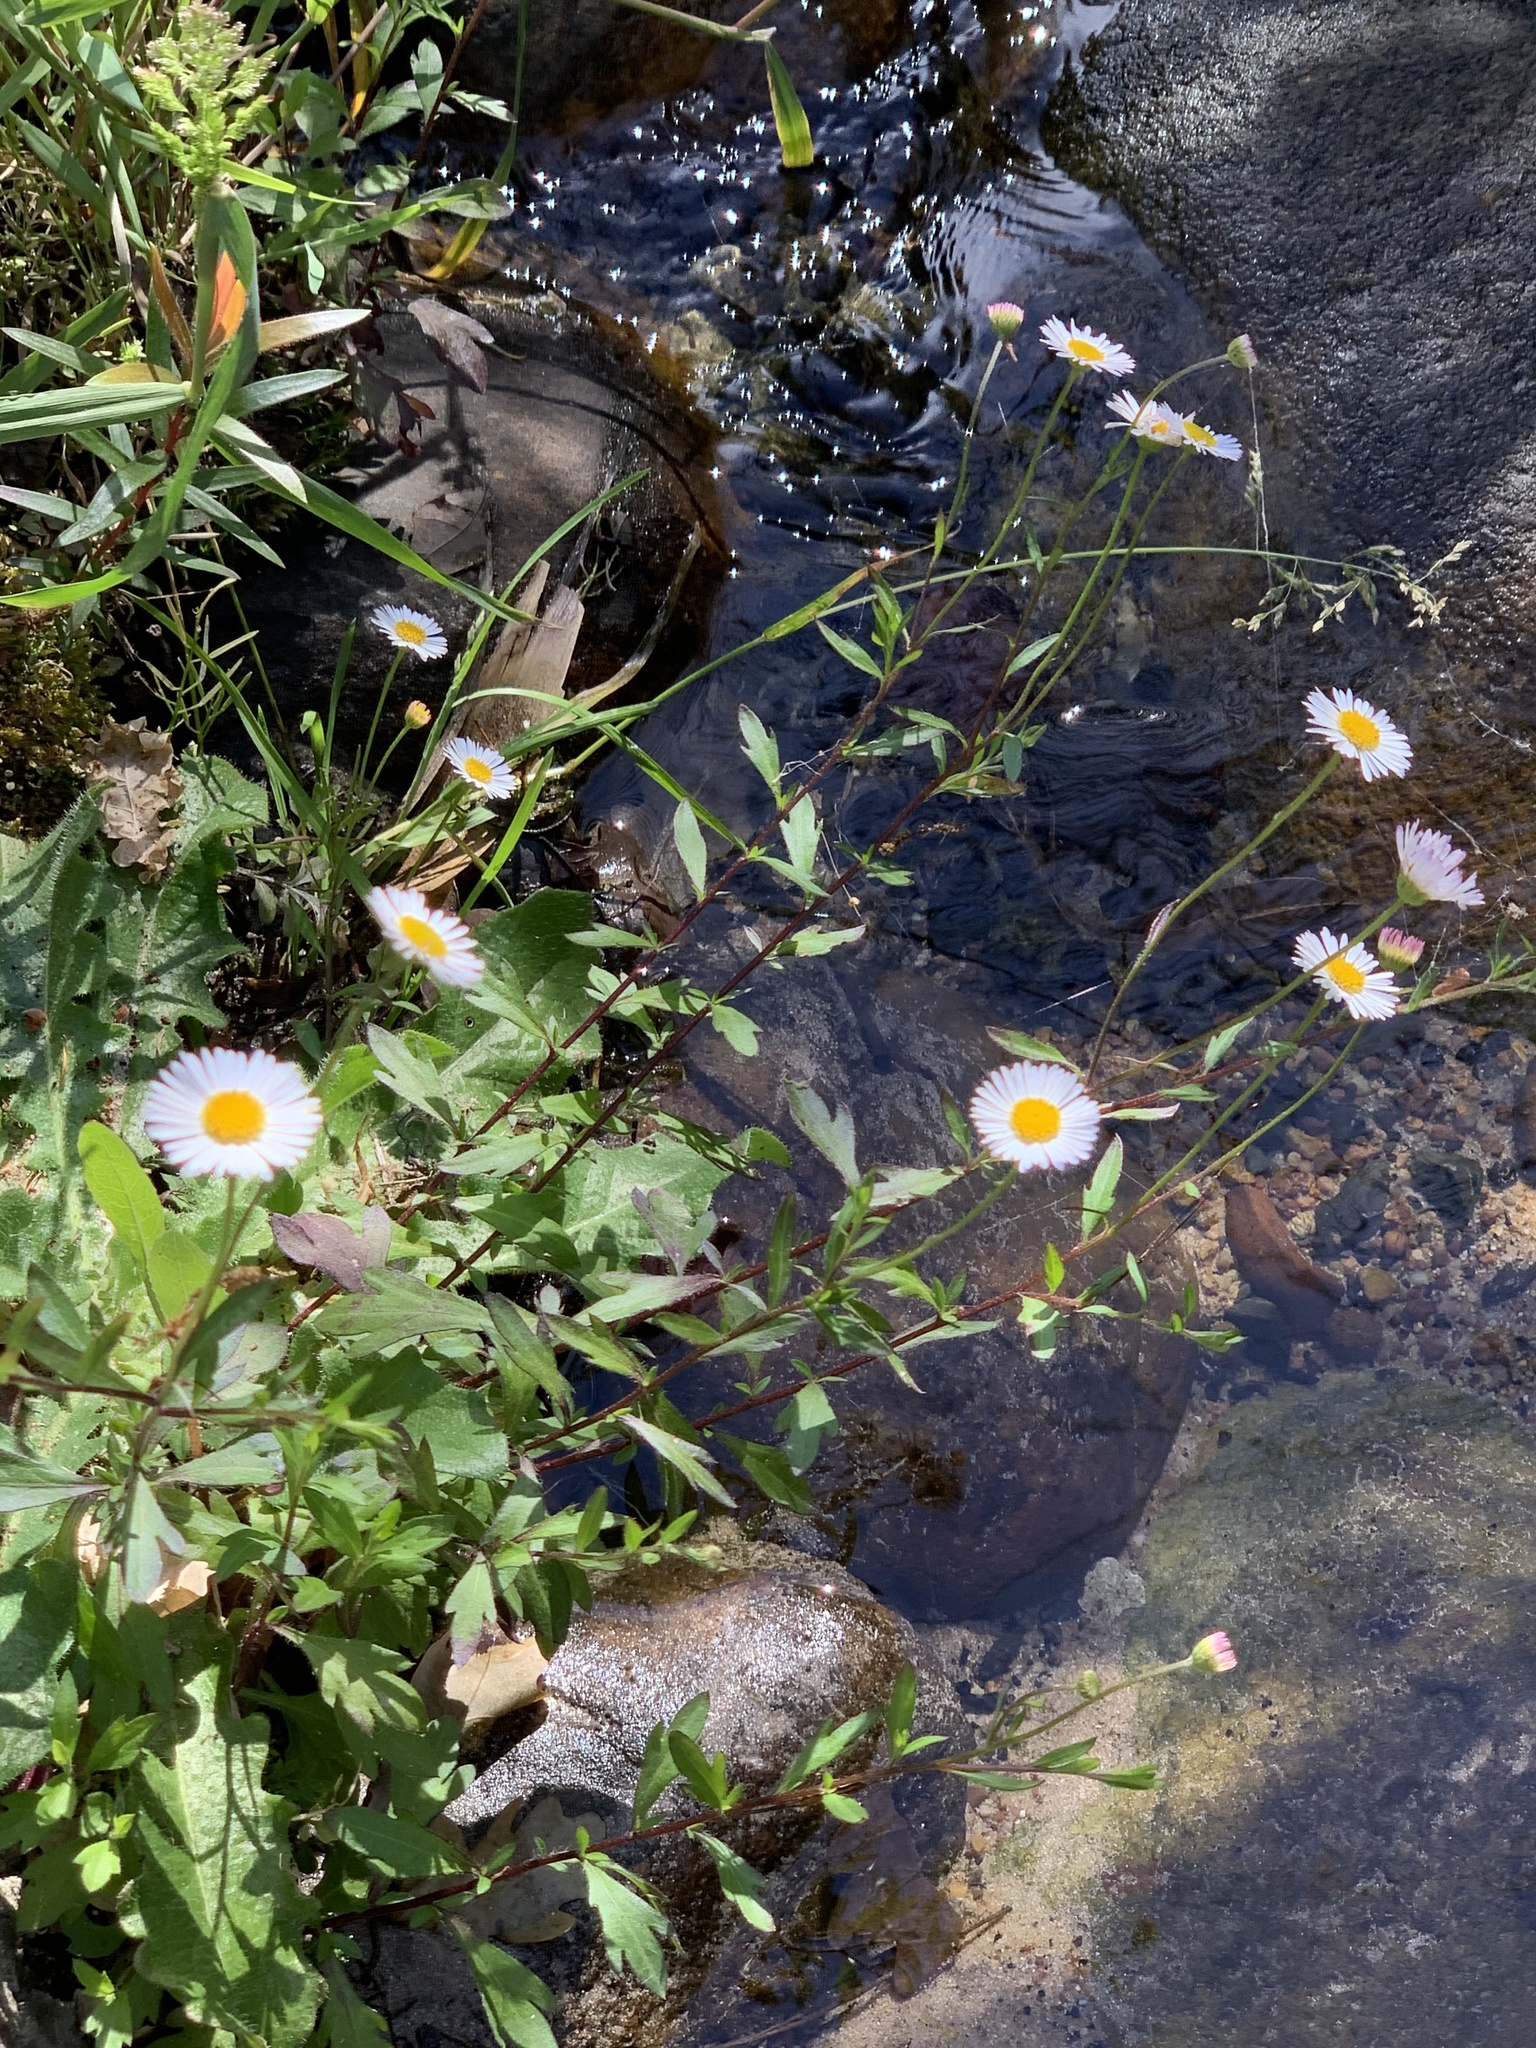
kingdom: Plantae
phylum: Tracheophyta
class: Magnoliopsida
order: Asterales
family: Asteraceae
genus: Erigeron
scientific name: Erigeron karvinskianus
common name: Mexican fleabane
